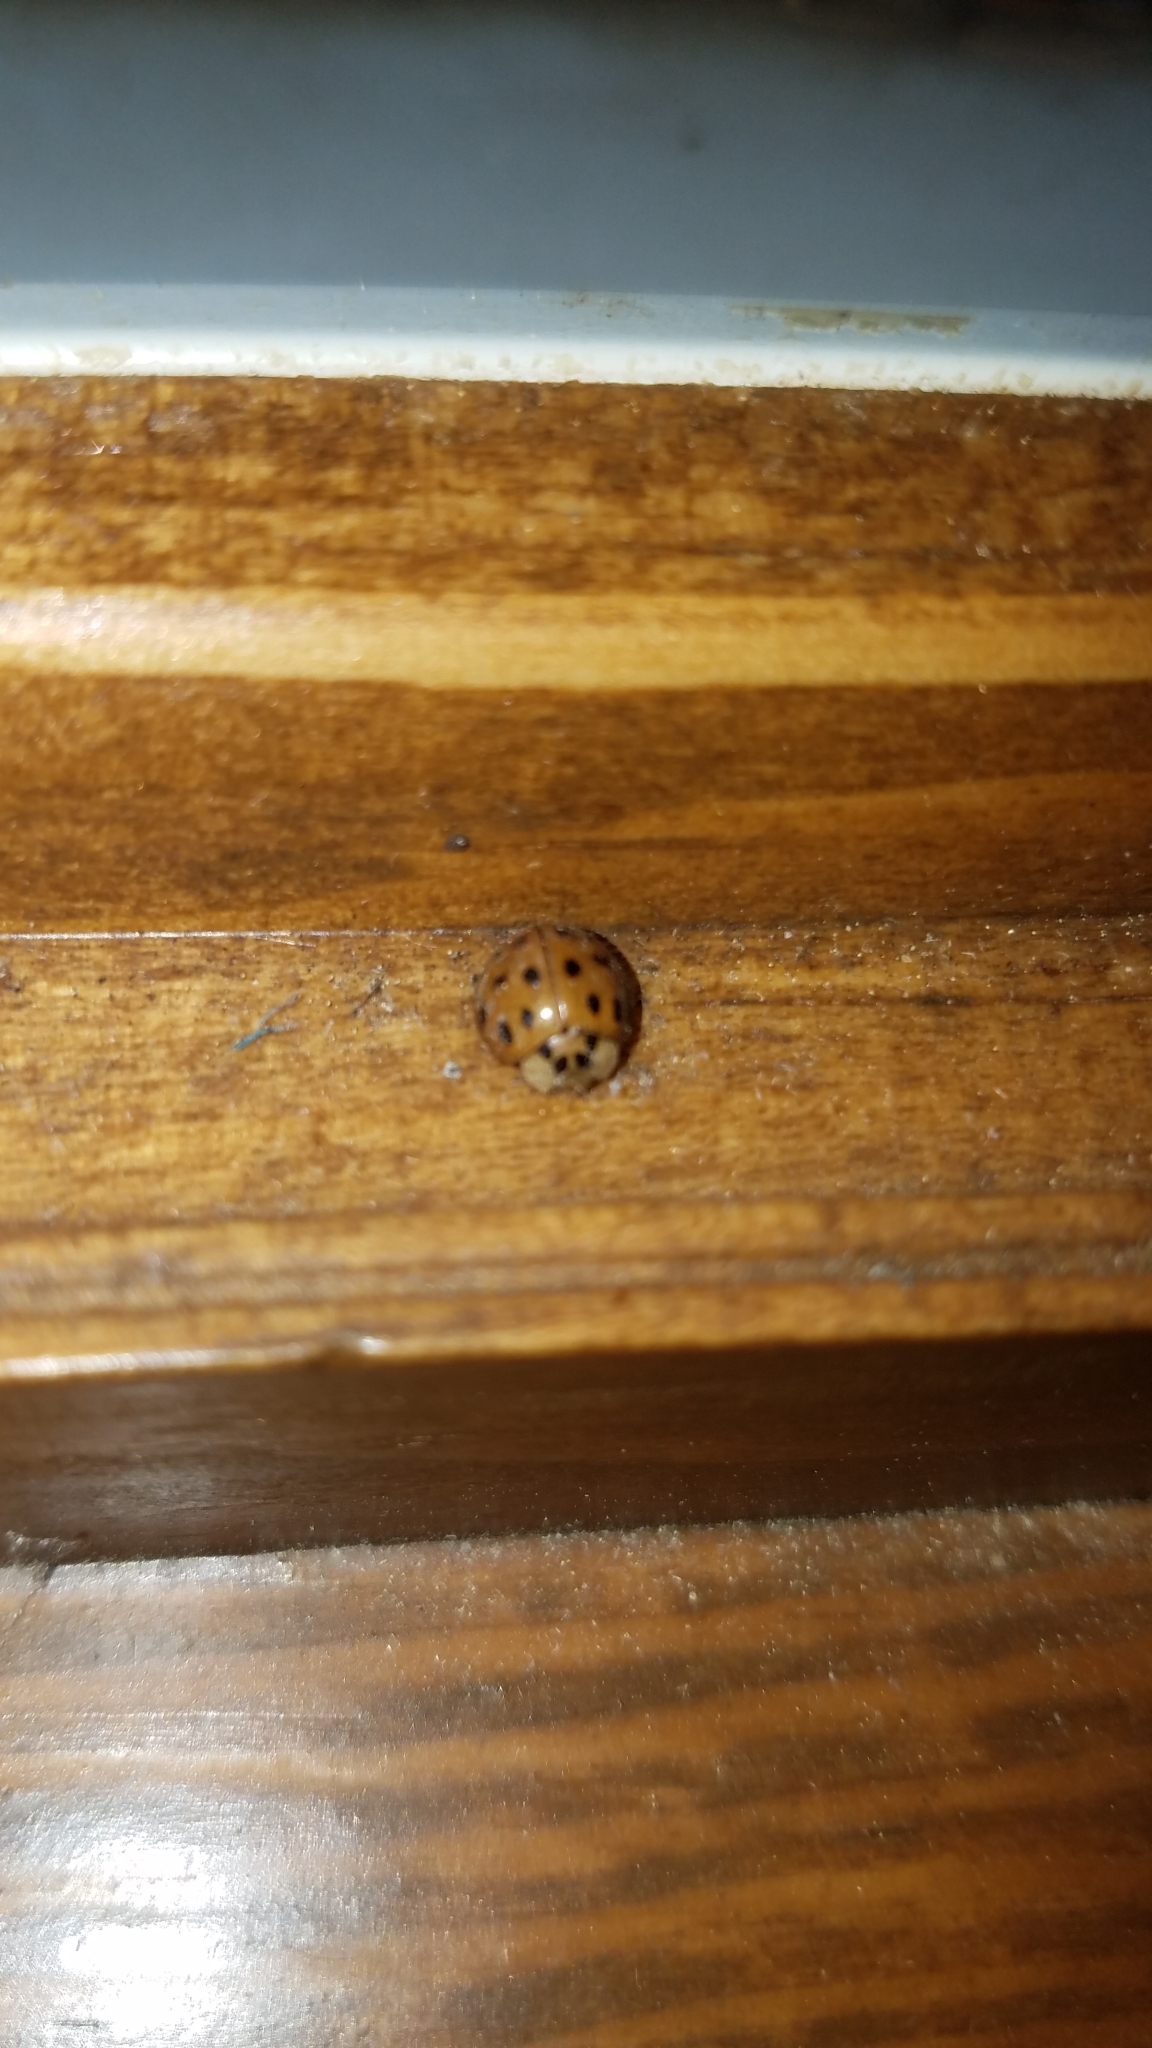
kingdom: Animalia
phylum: Arthropoda
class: Insecta
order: Coleoptera
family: Coccinellidae
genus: Harmonia
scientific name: Harmonia axyridis
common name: Harlequin ladybird
